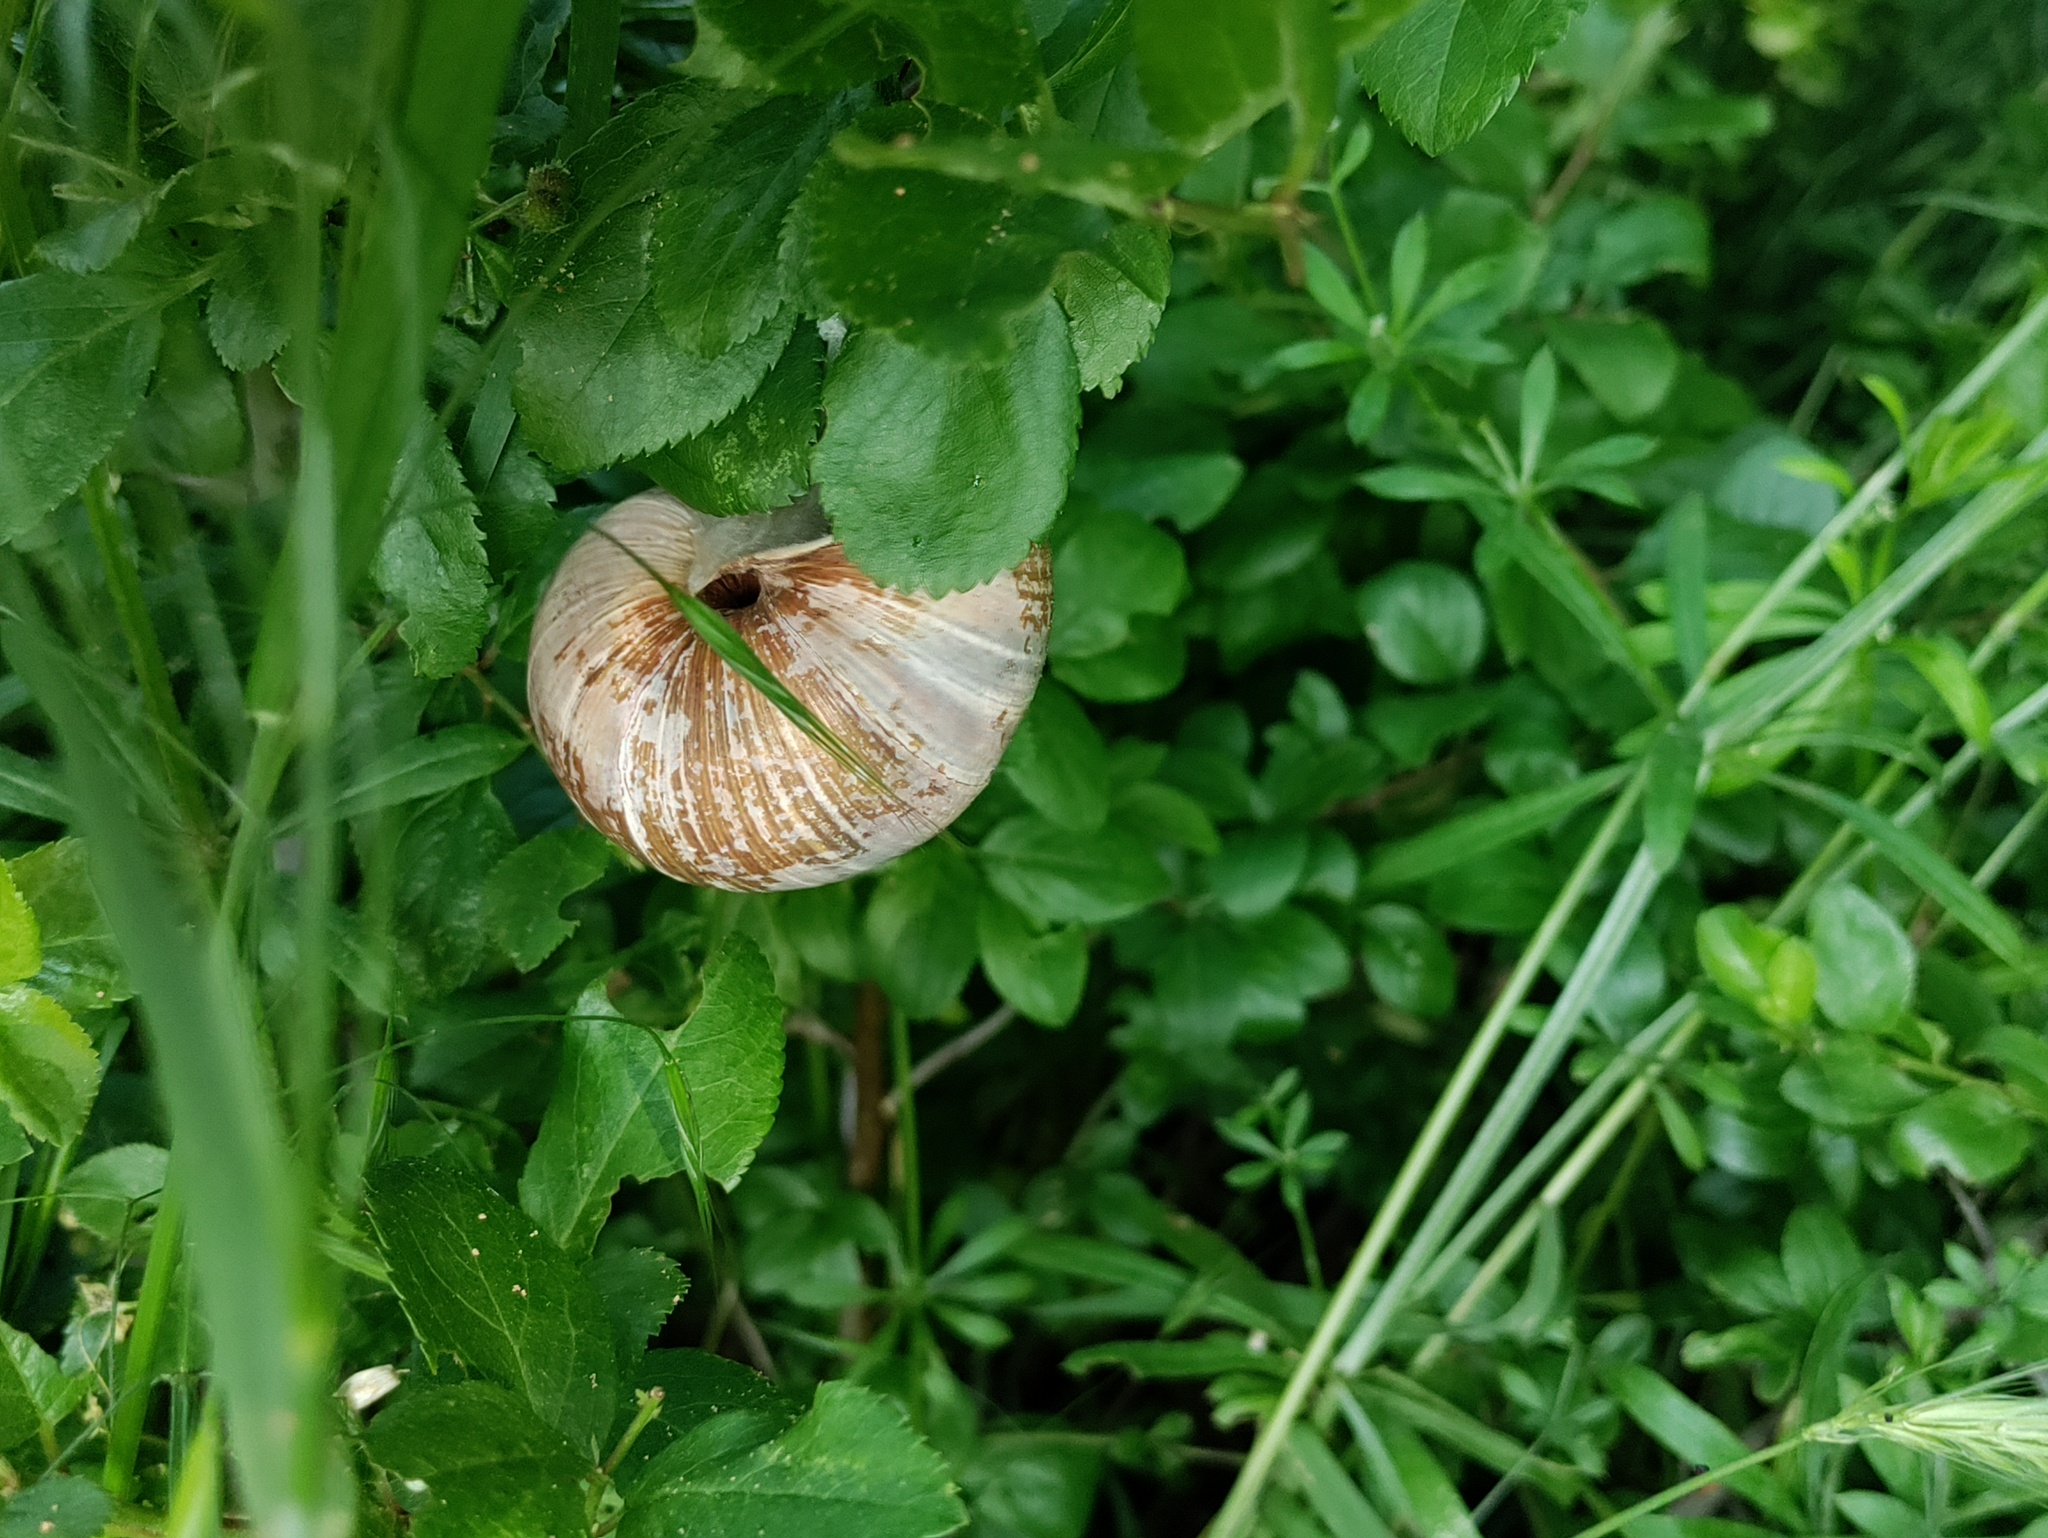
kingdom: Animalia
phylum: Mollusca
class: Gastropoda
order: Stylommatophora
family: Helicidae
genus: Helix
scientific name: Helix pomatia
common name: Roman snail
